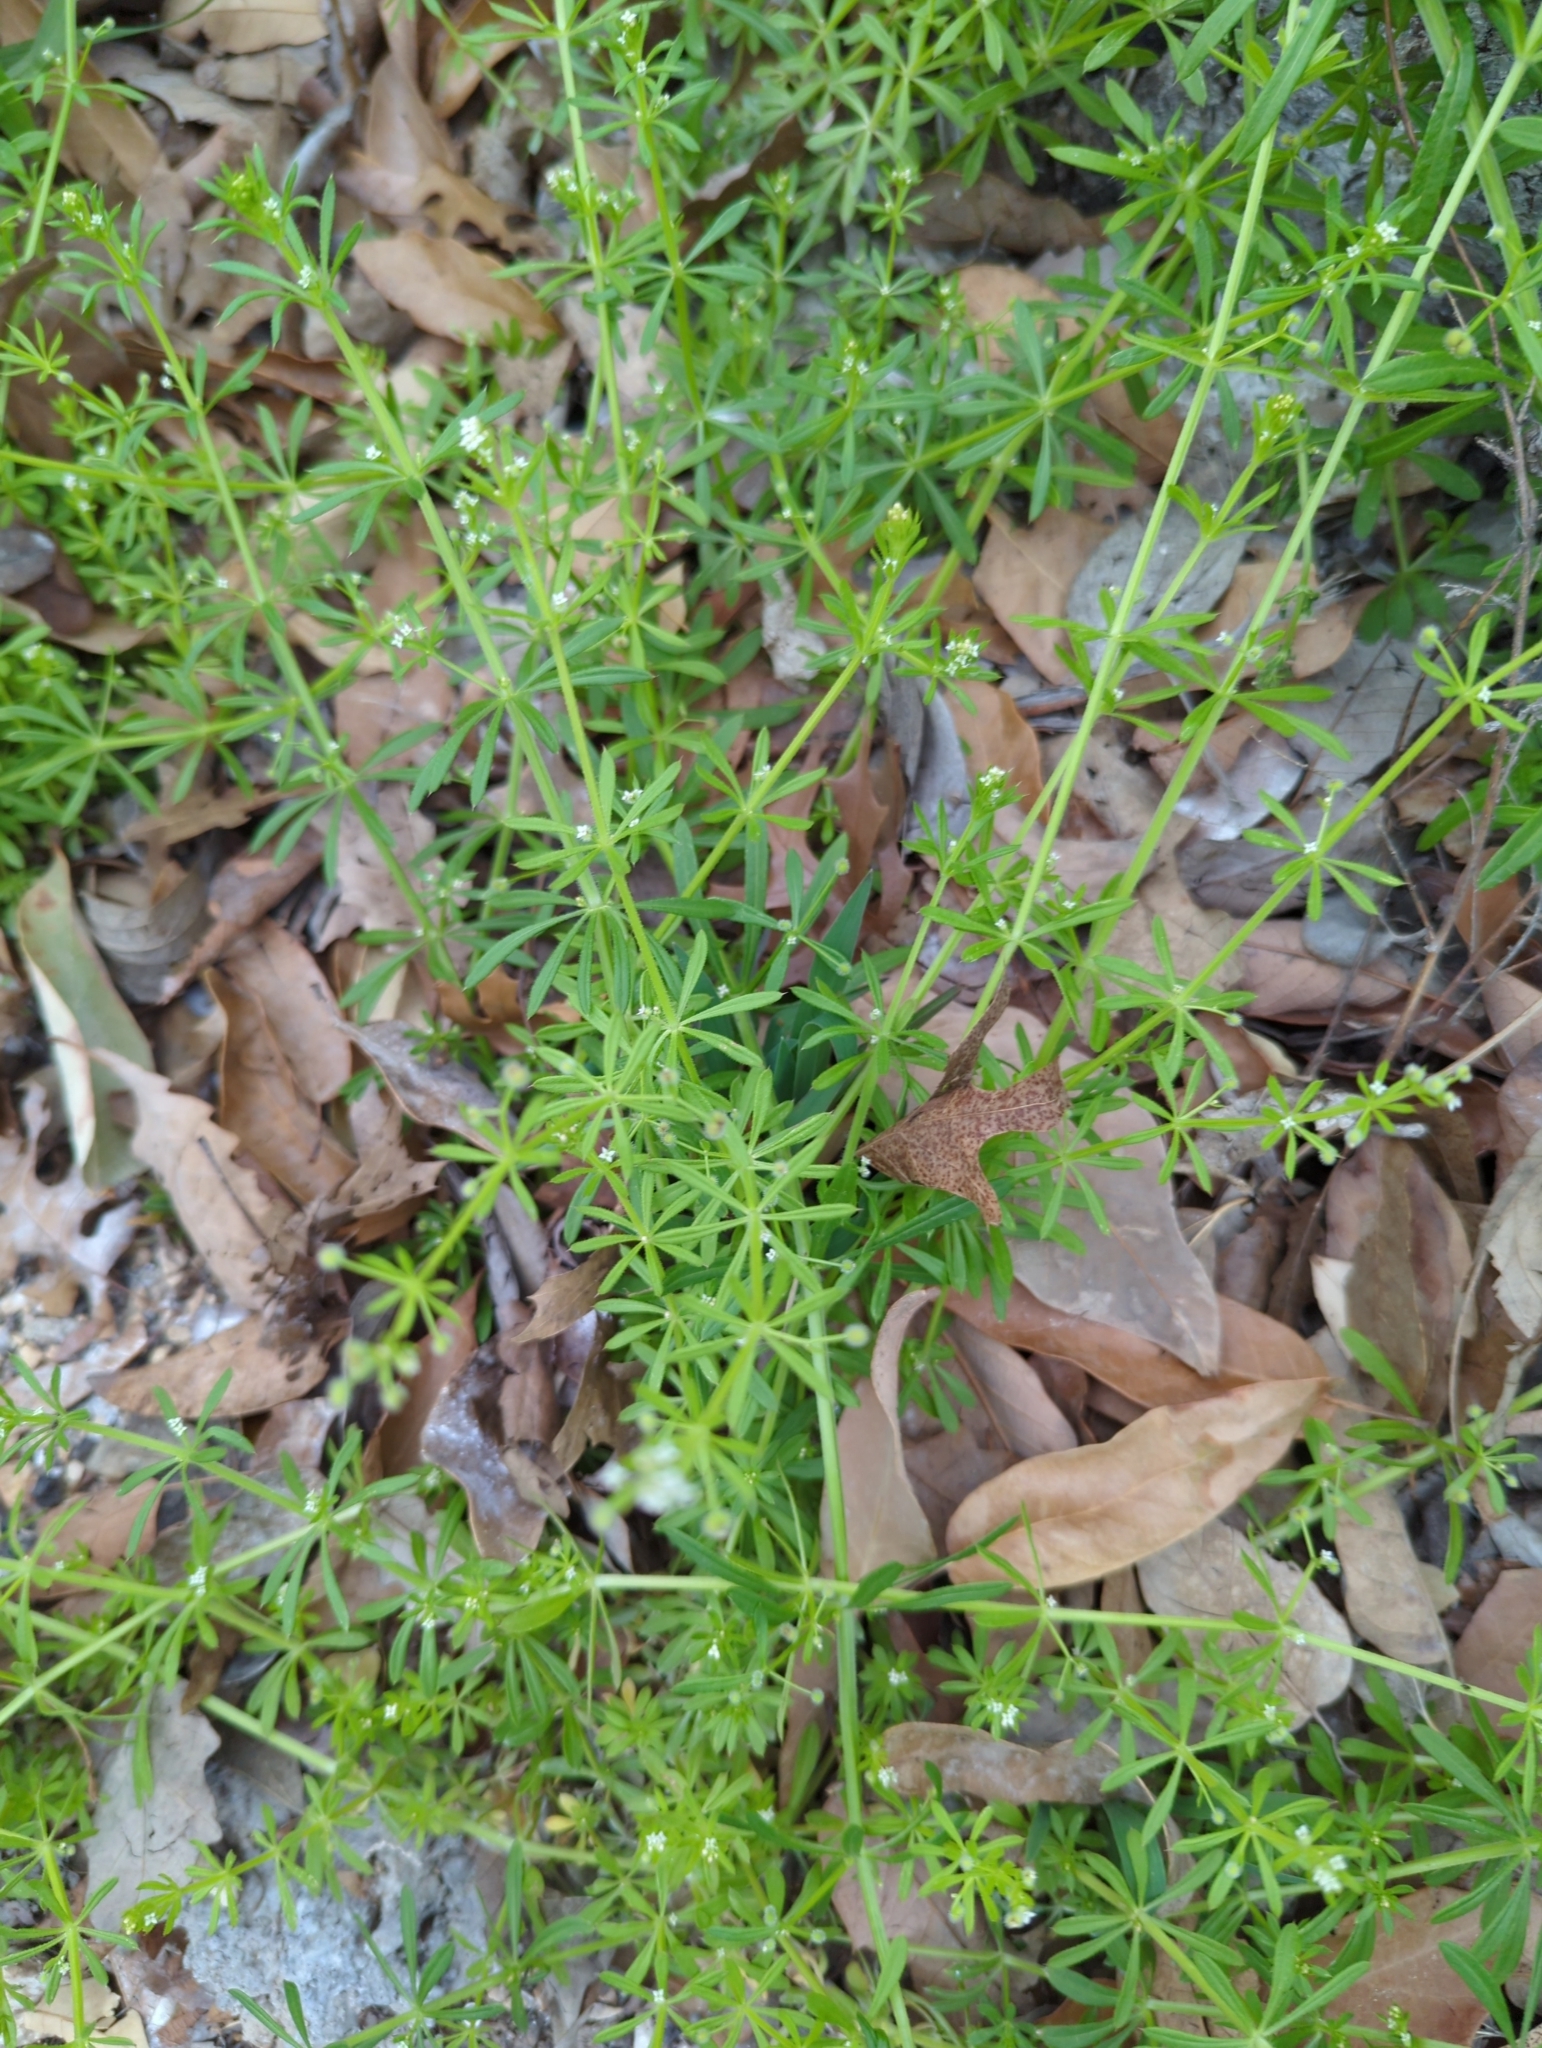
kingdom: Plantae
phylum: Tracheophyta
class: Magnoliopsida
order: Gentianales
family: Rubiaceae
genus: Galium
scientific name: Galium aparine
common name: Cleavers
